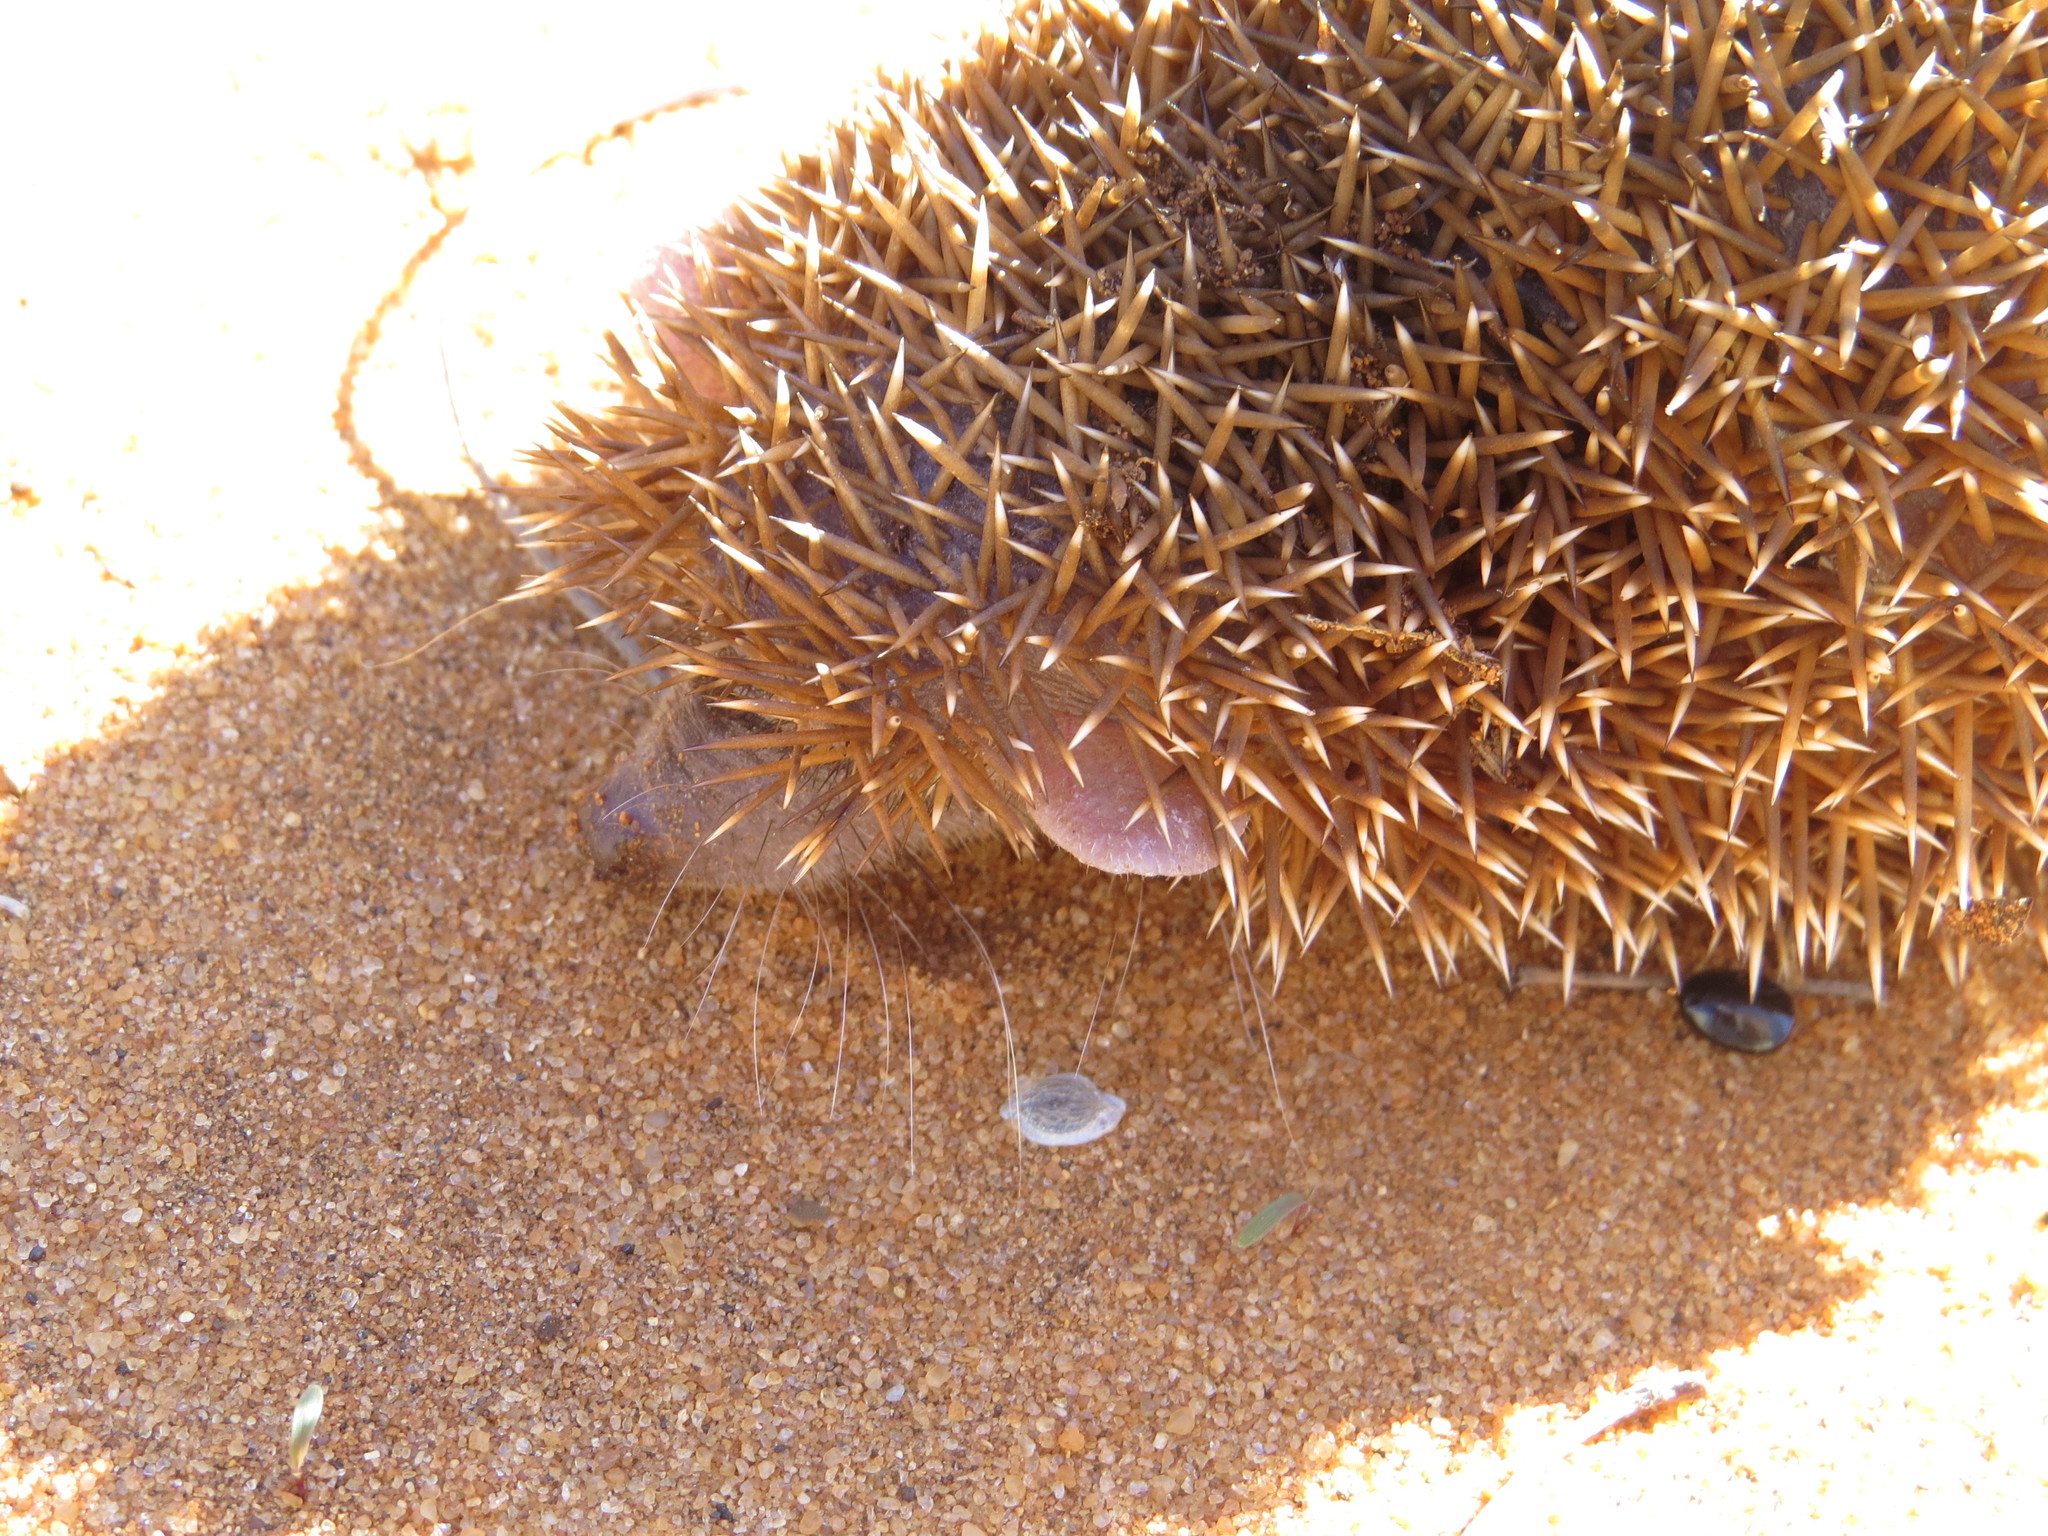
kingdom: Animalia
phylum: Chordata
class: Mammalia
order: Afrosoricida
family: Tenrecidae
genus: Echinops
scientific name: Echinops telfairi
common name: Lesser hedgehog tenrec
